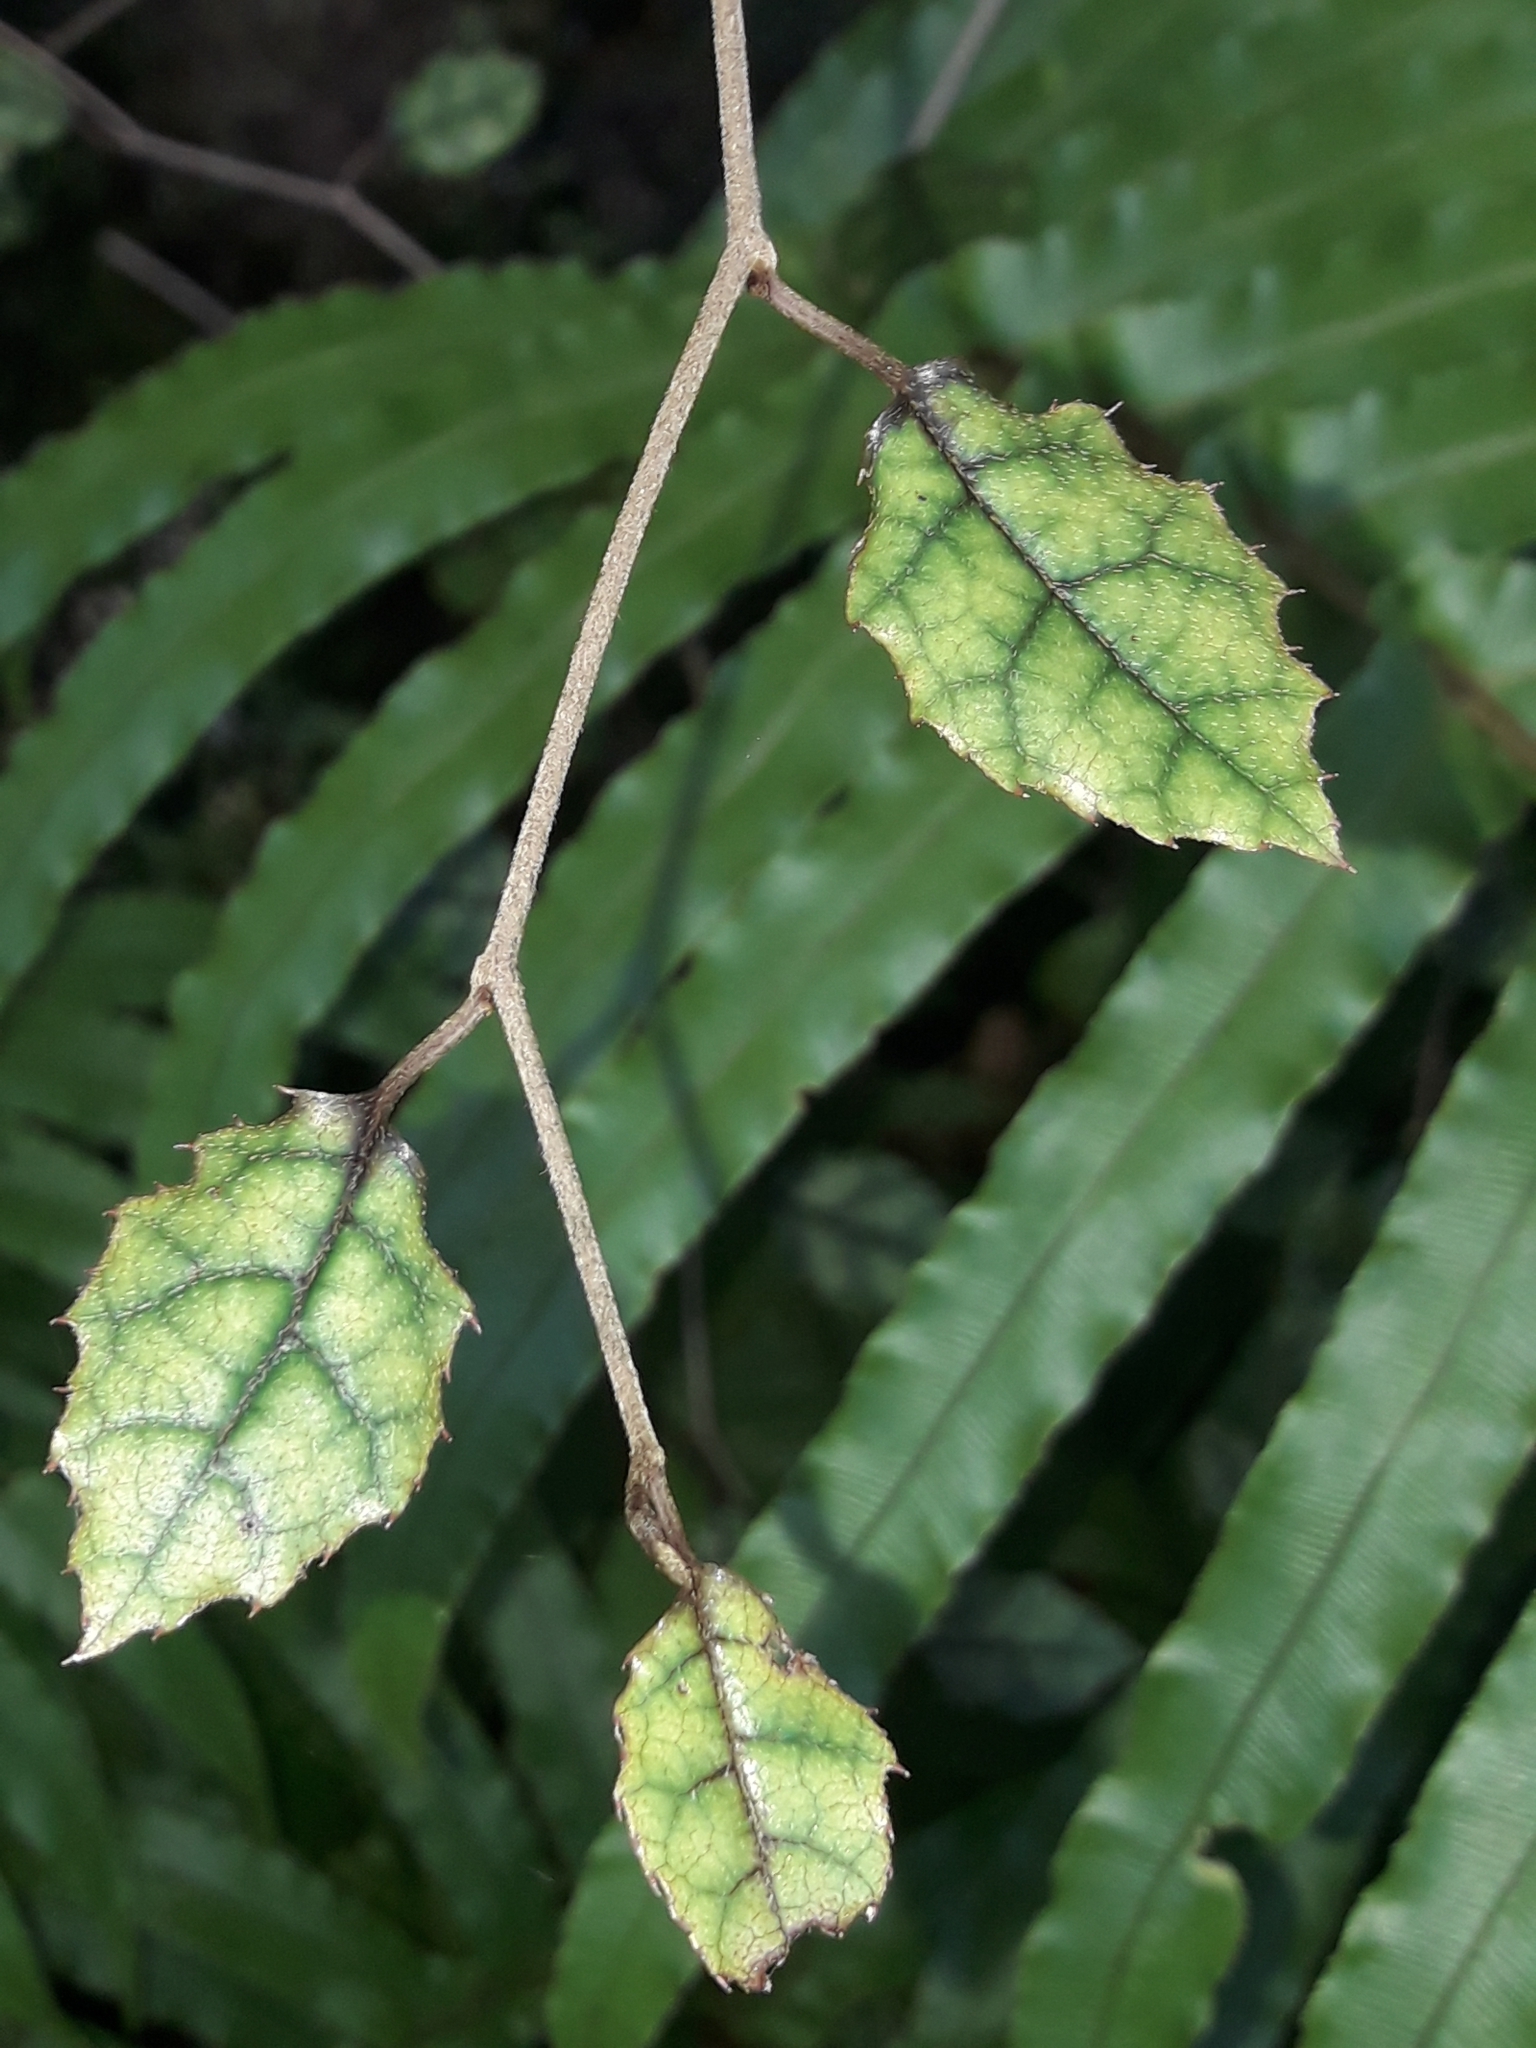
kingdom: Plantae
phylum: Tracheophyta
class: Magnoliopsida
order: Asterales
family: Rousseaceae
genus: Carpodetus
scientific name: Carpodetus serratus
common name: White mapau
